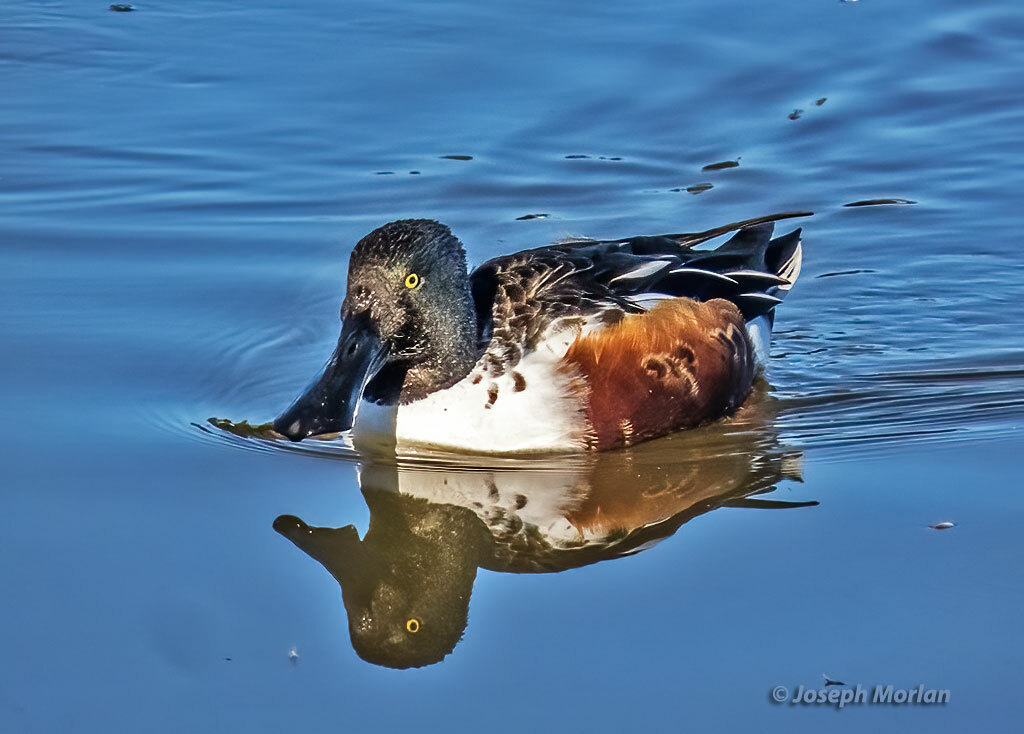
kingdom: Animalia
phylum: Chordata
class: Aves
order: Anseriformes
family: Anatidae
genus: Spatula
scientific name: Spatula clypeata
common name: Northern shoveler
